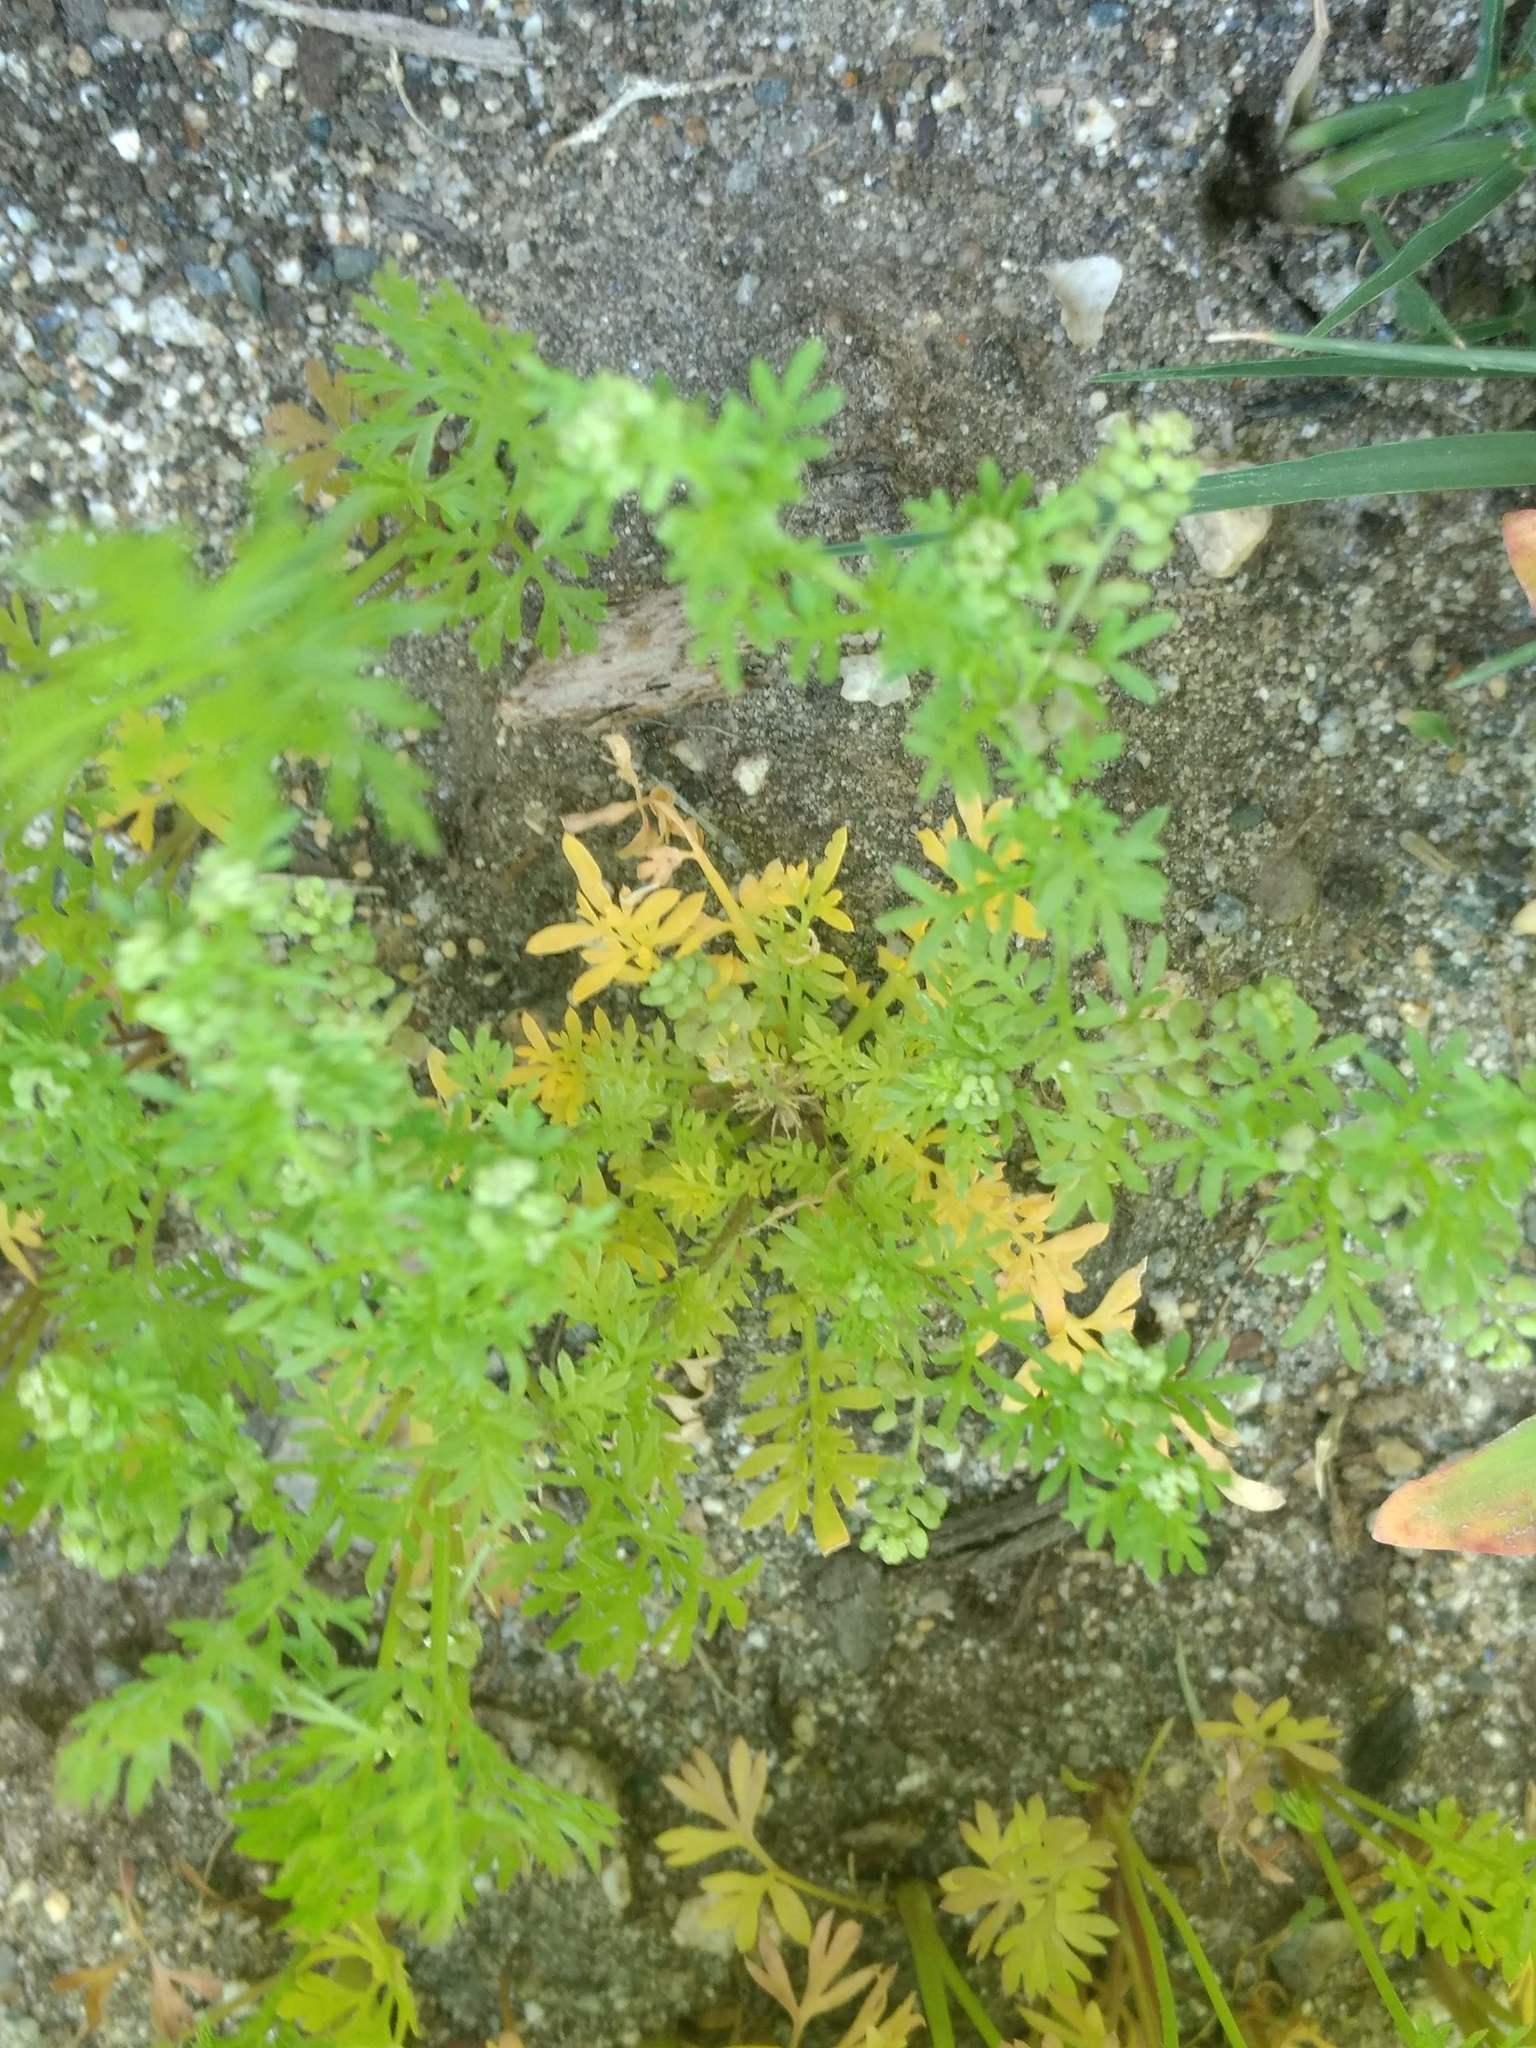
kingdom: Plantae
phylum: Tracheophyta
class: Magnoliopsida
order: Brassicales
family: Brassicaceae
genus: Lepidium
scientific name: Lepidium didymum
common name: Lesser swinecress
